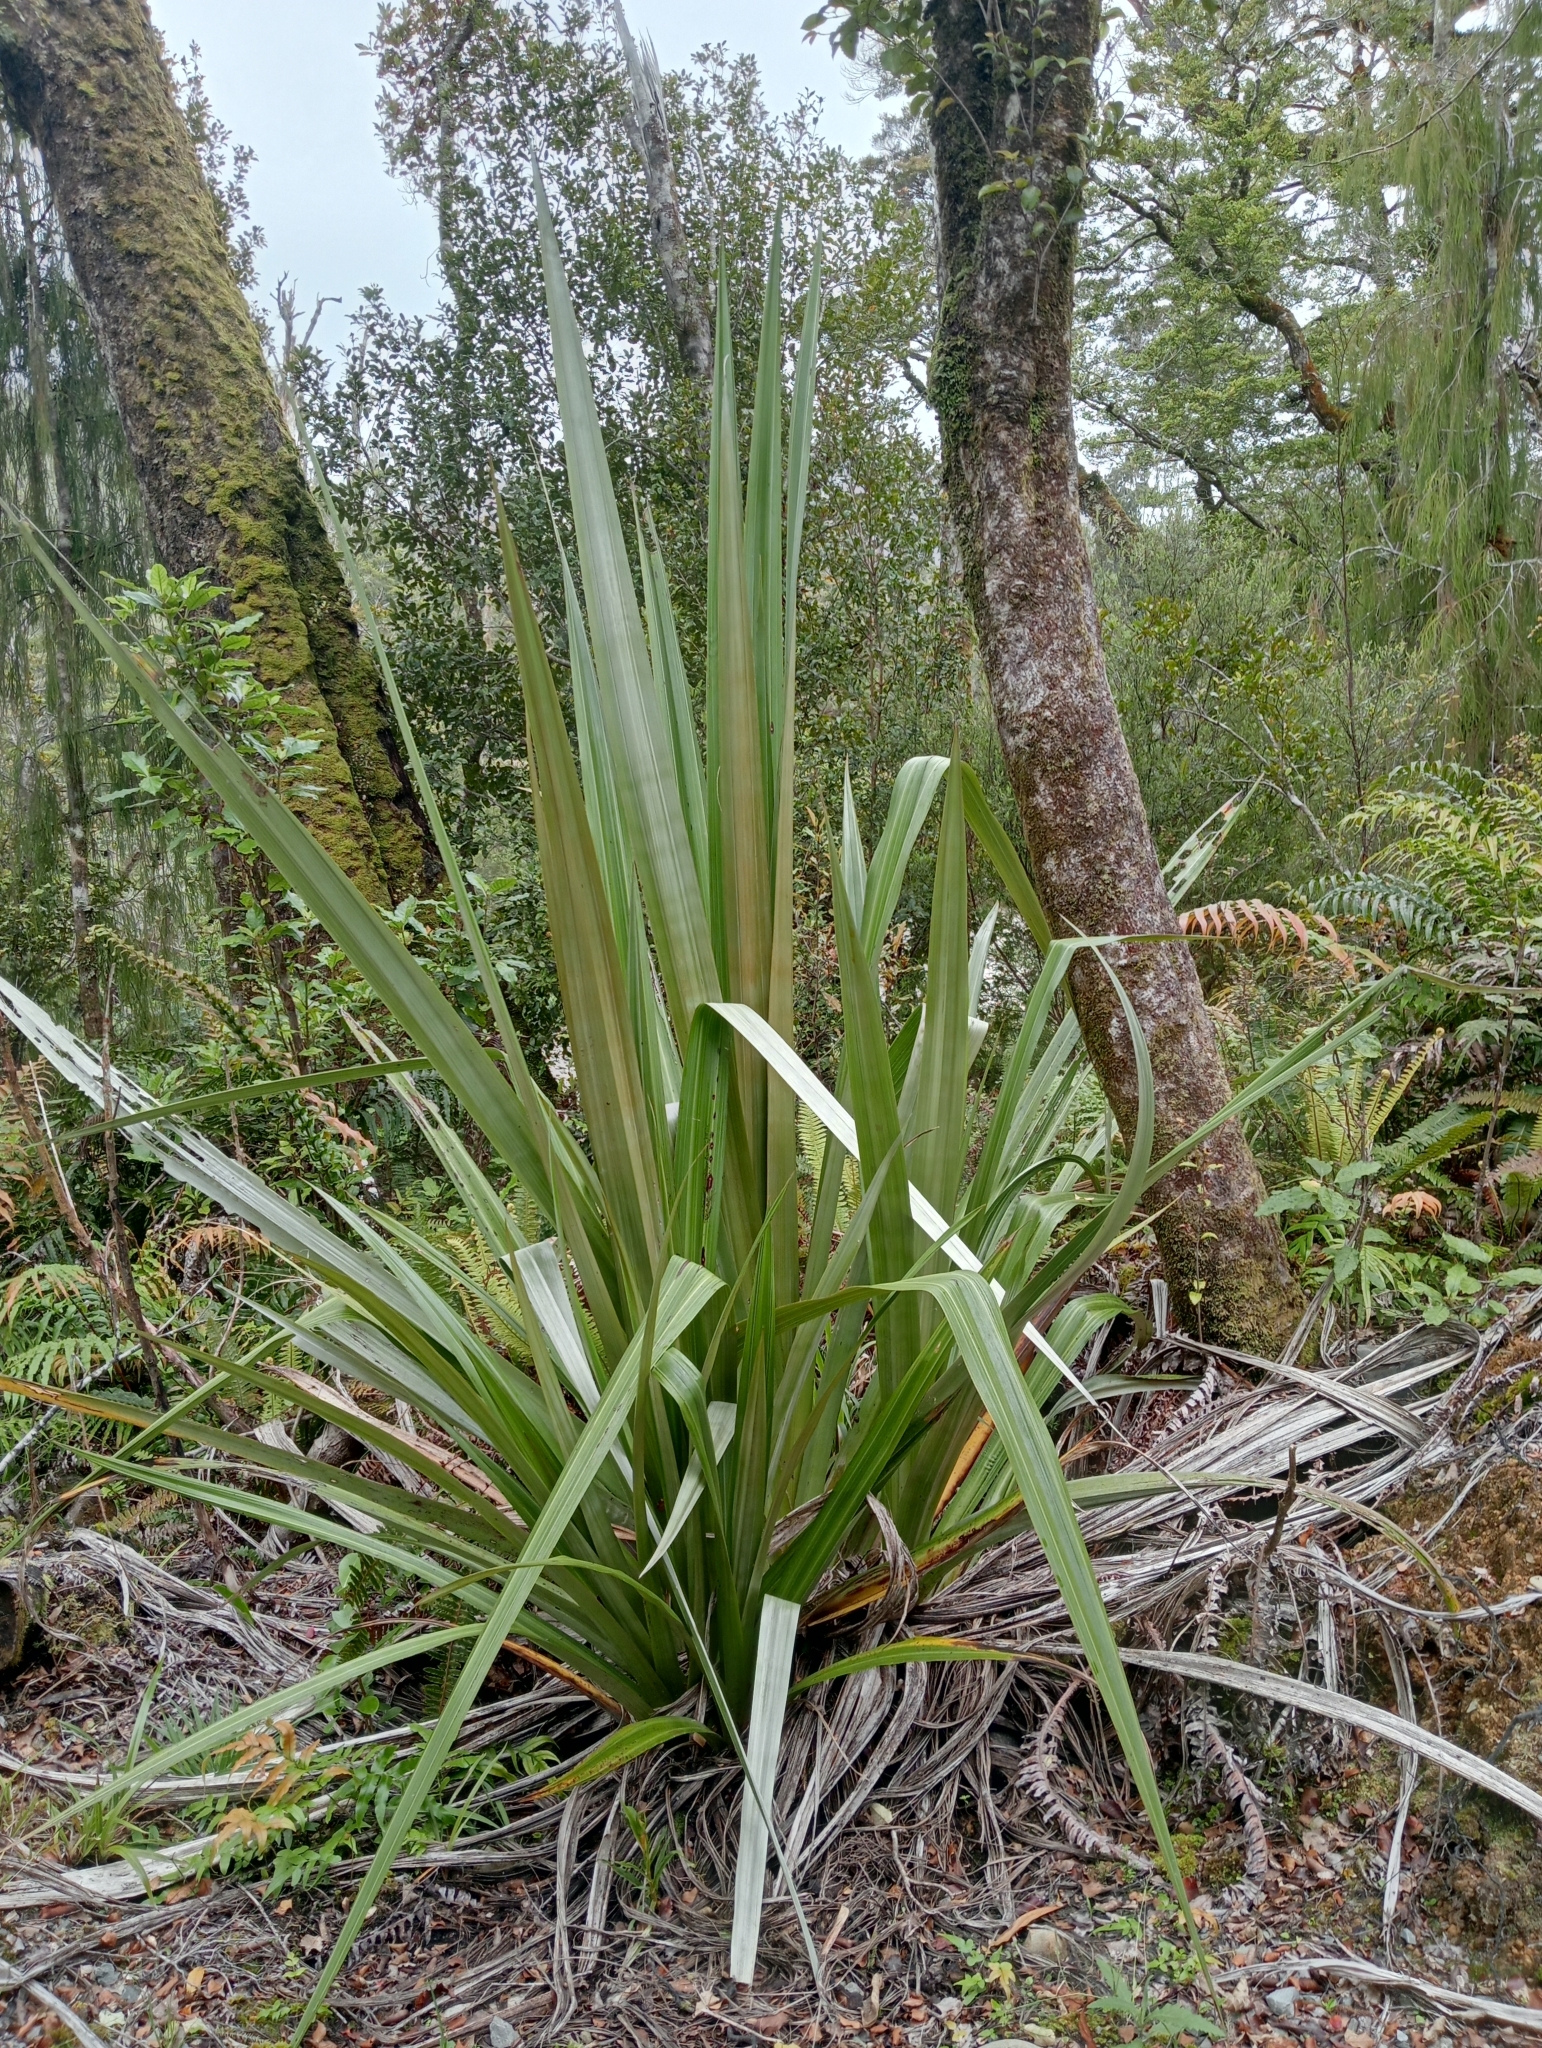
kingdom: Plantae
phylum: Tracheophyta
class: Liliopsida
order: Asparagales
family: Asteliaceae
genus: Astelia
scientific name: Astelia grandis
